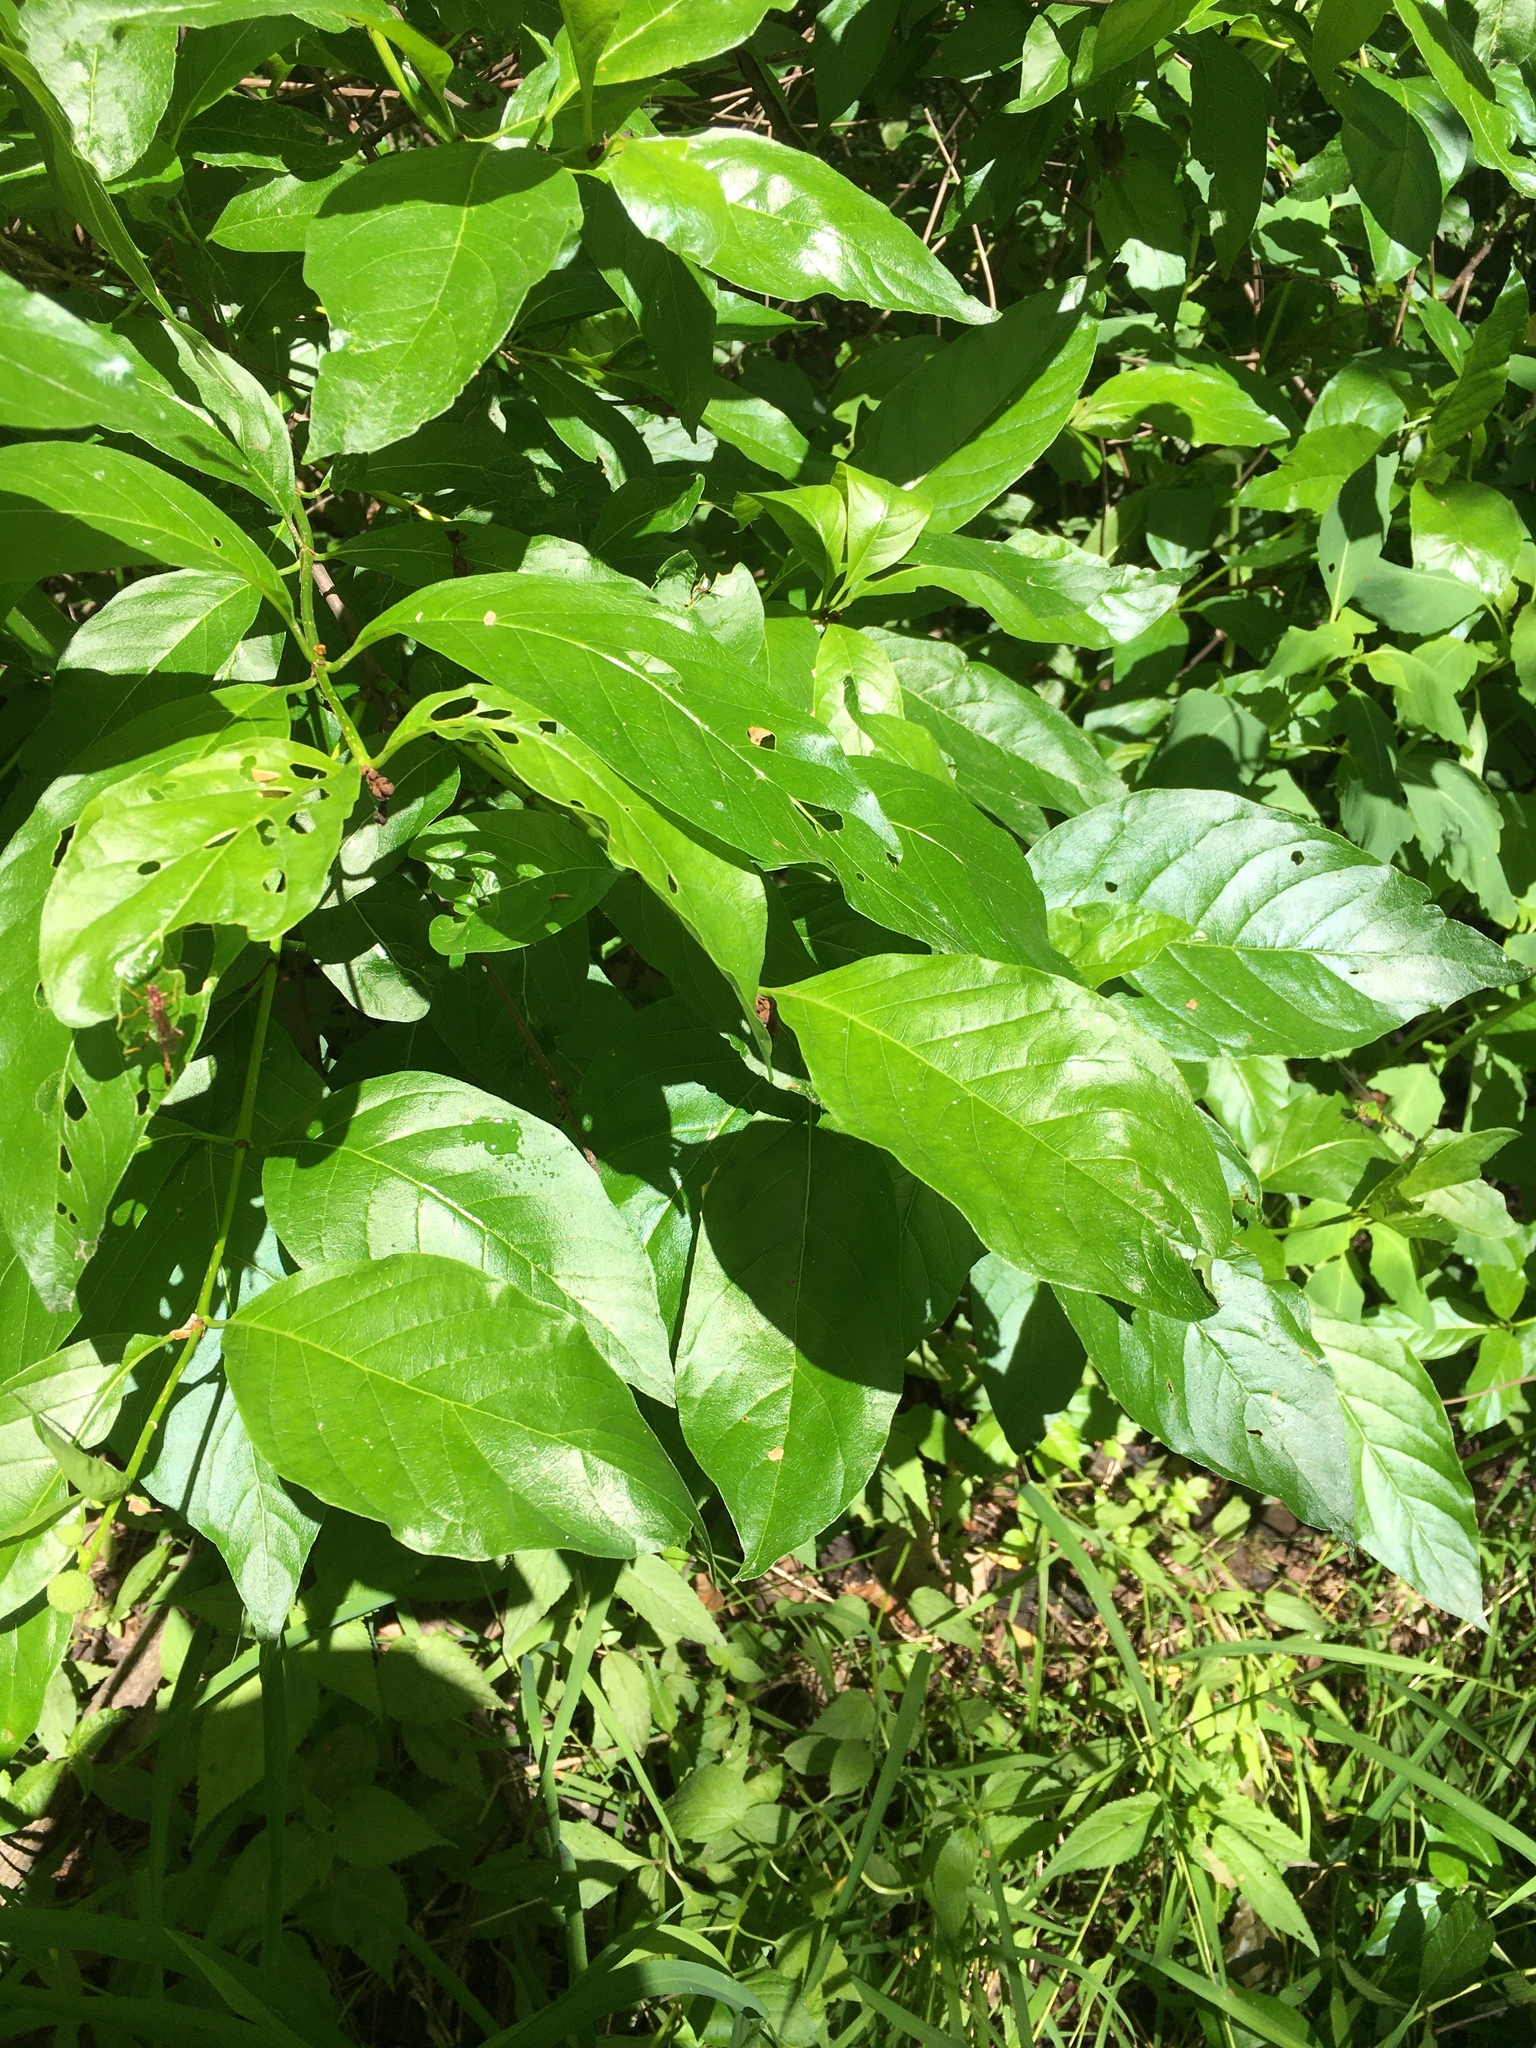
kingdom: Plantae
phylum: Tracheophyta
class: Magnoliopsida
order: Gentianales
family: Rubiaceae
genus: Cephalanthus
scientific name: Cephalanthus occidentalis
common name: Button-willow
